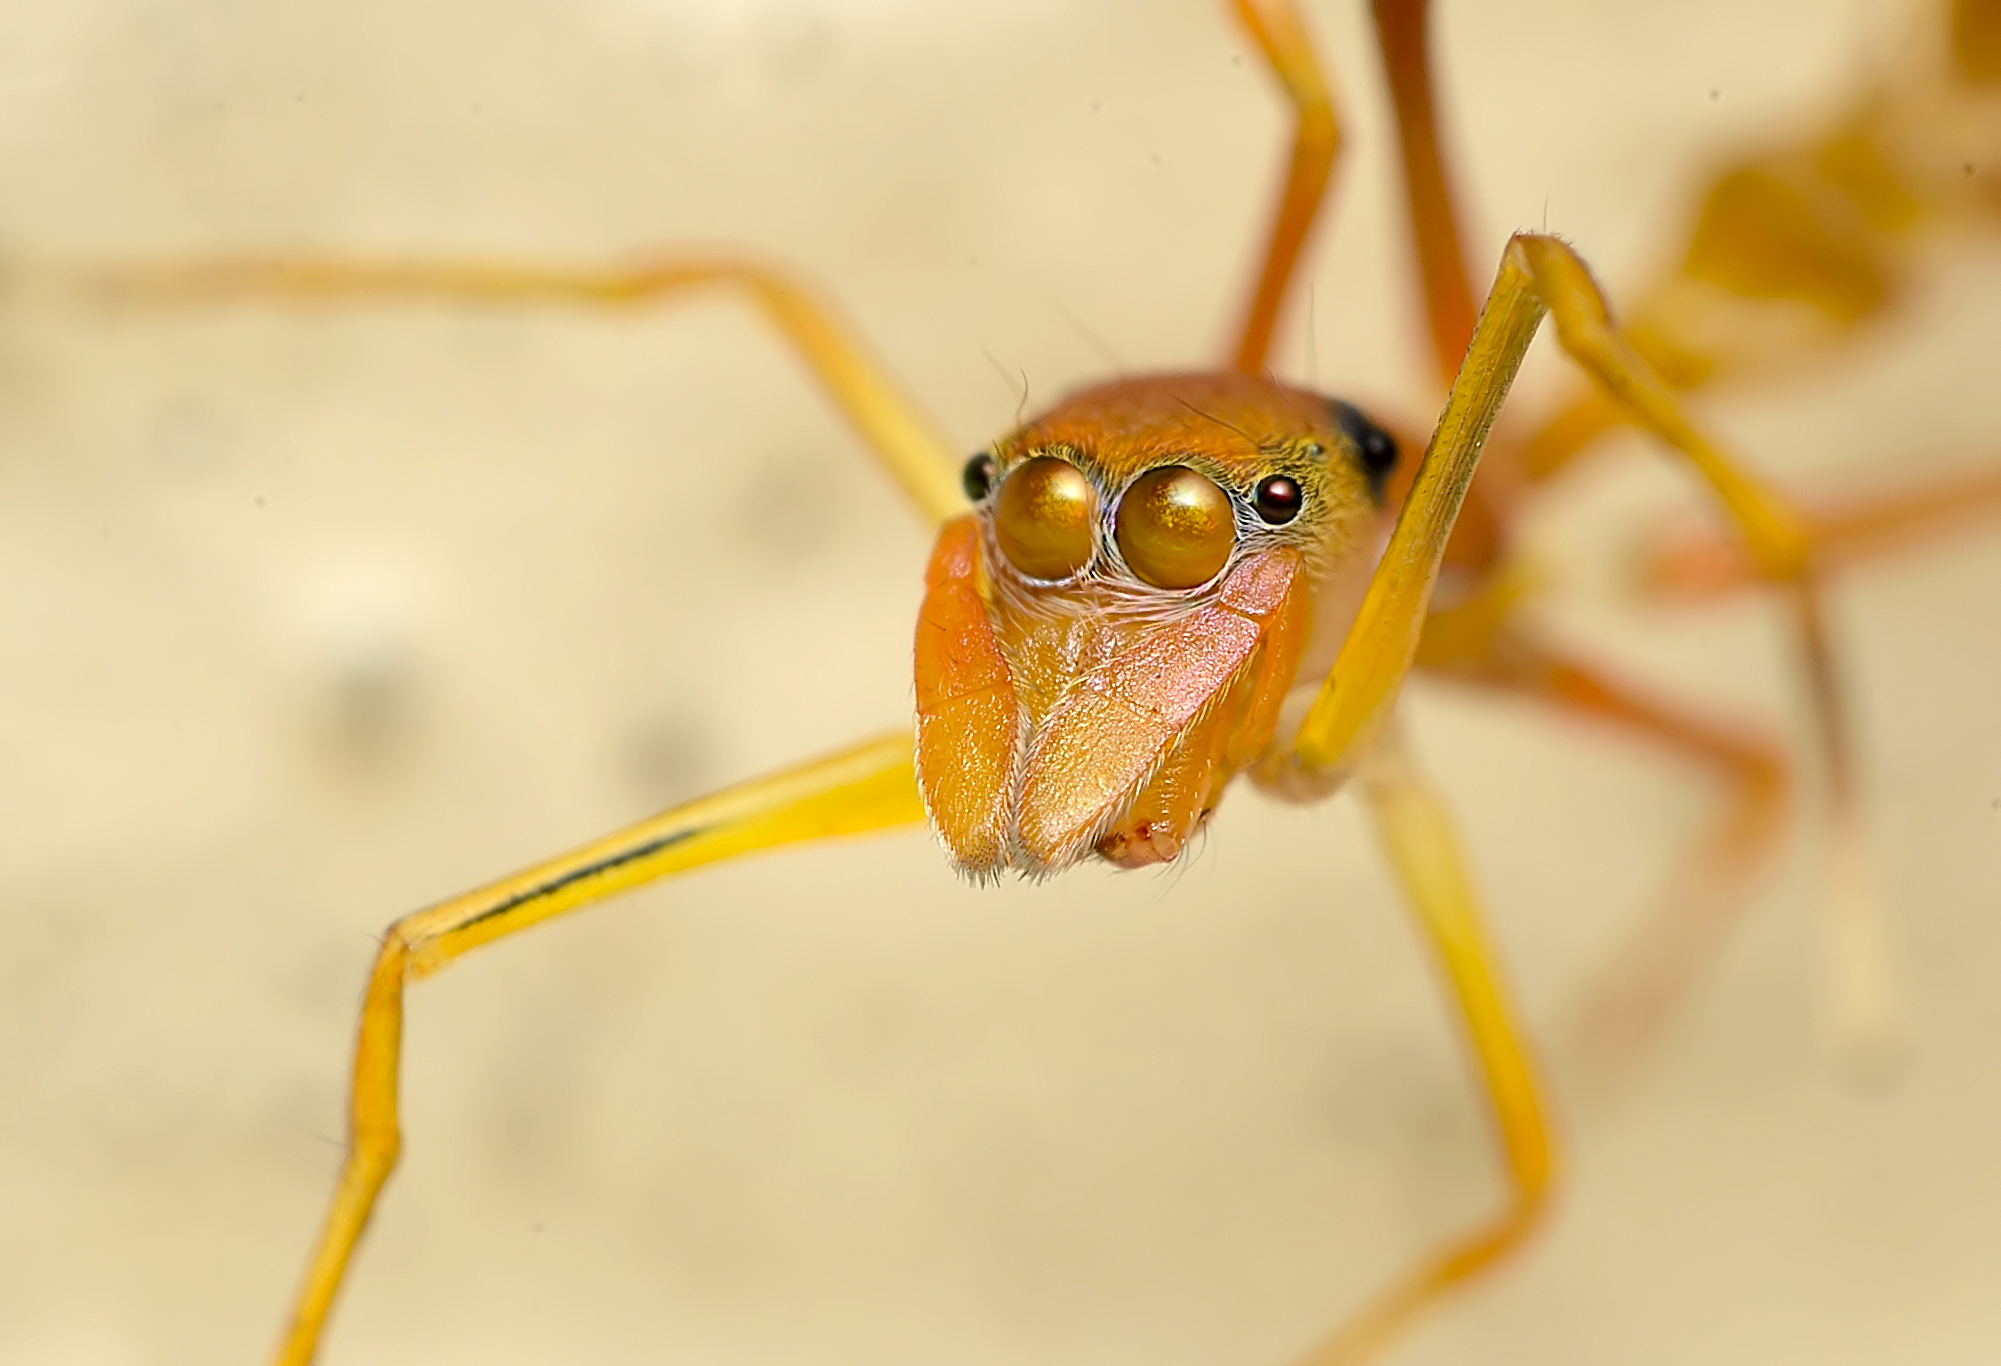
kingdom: Animalia
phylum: Arthropoda
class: Arachnida
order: Araneae
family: Salticidae
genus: Myrmaplata
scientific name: Myrmaplata plataleoides
